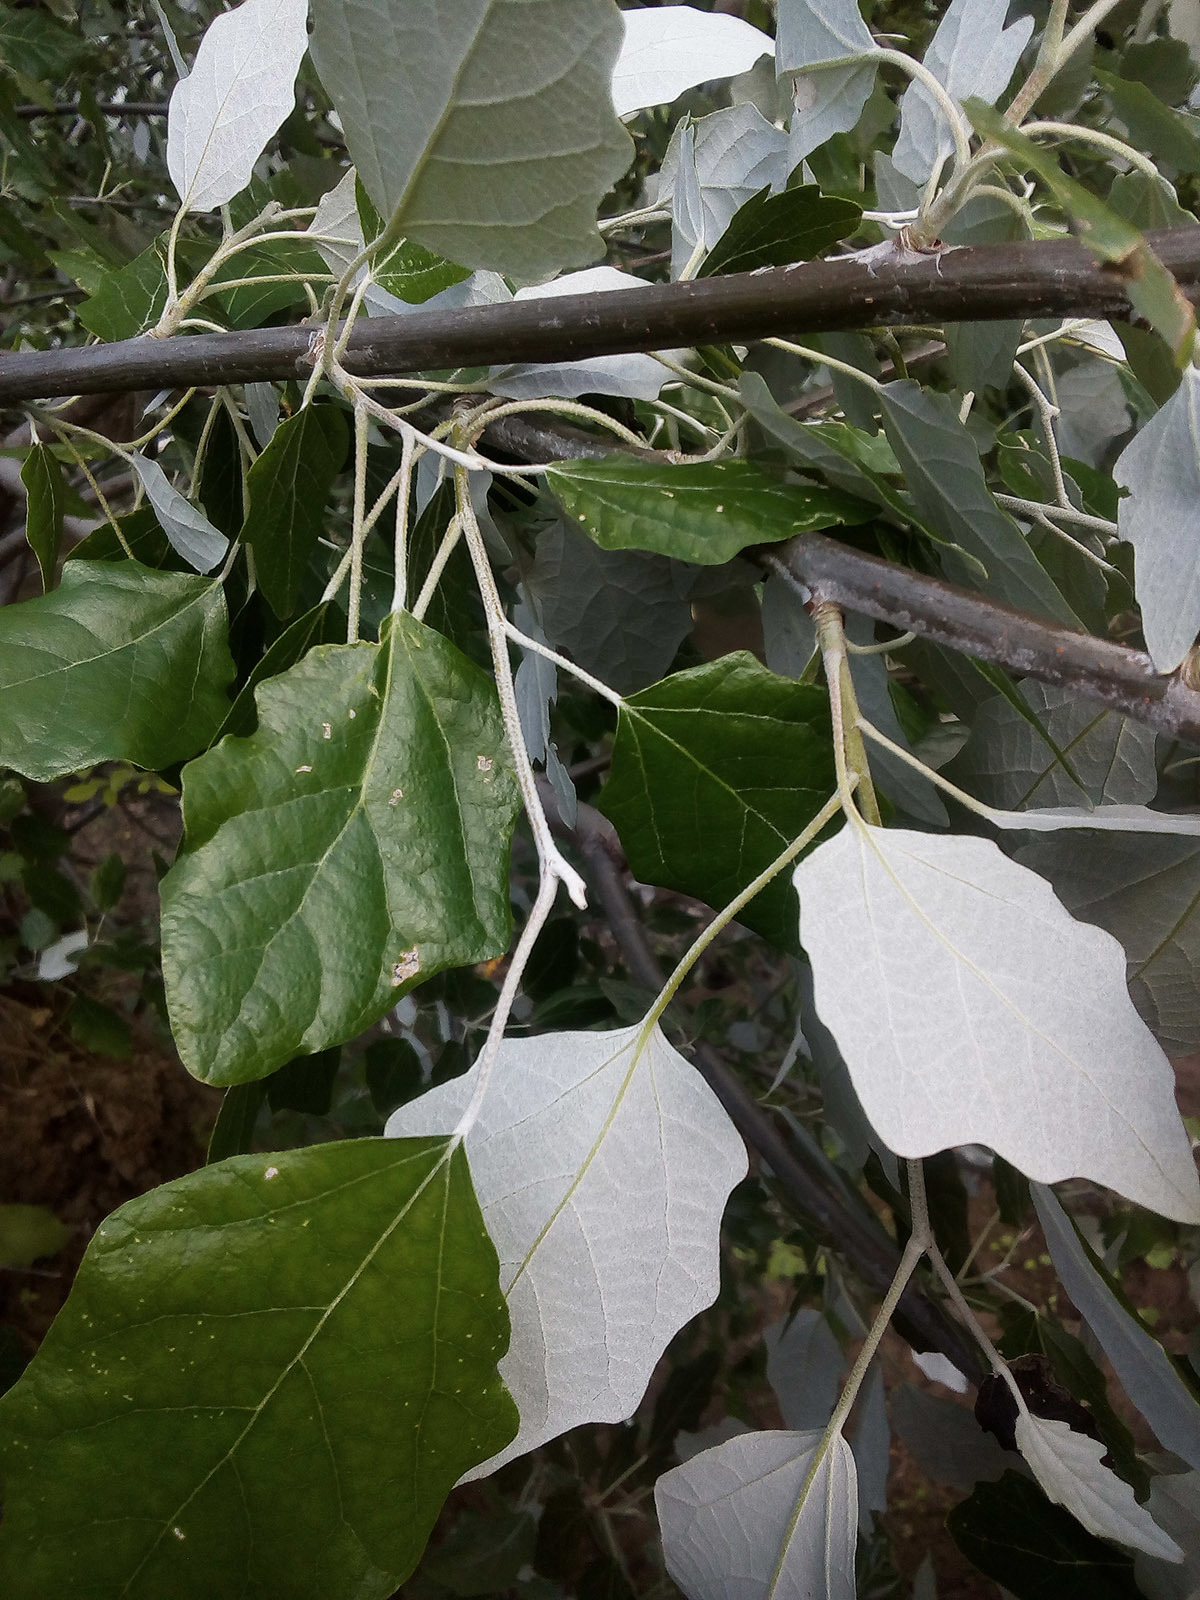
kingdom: Plantae
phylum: Tracheophyta
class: Magnoliopsida
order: Malpighiales
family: Salicaceae
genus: Populus
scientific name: Populus alba
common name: White poplar
